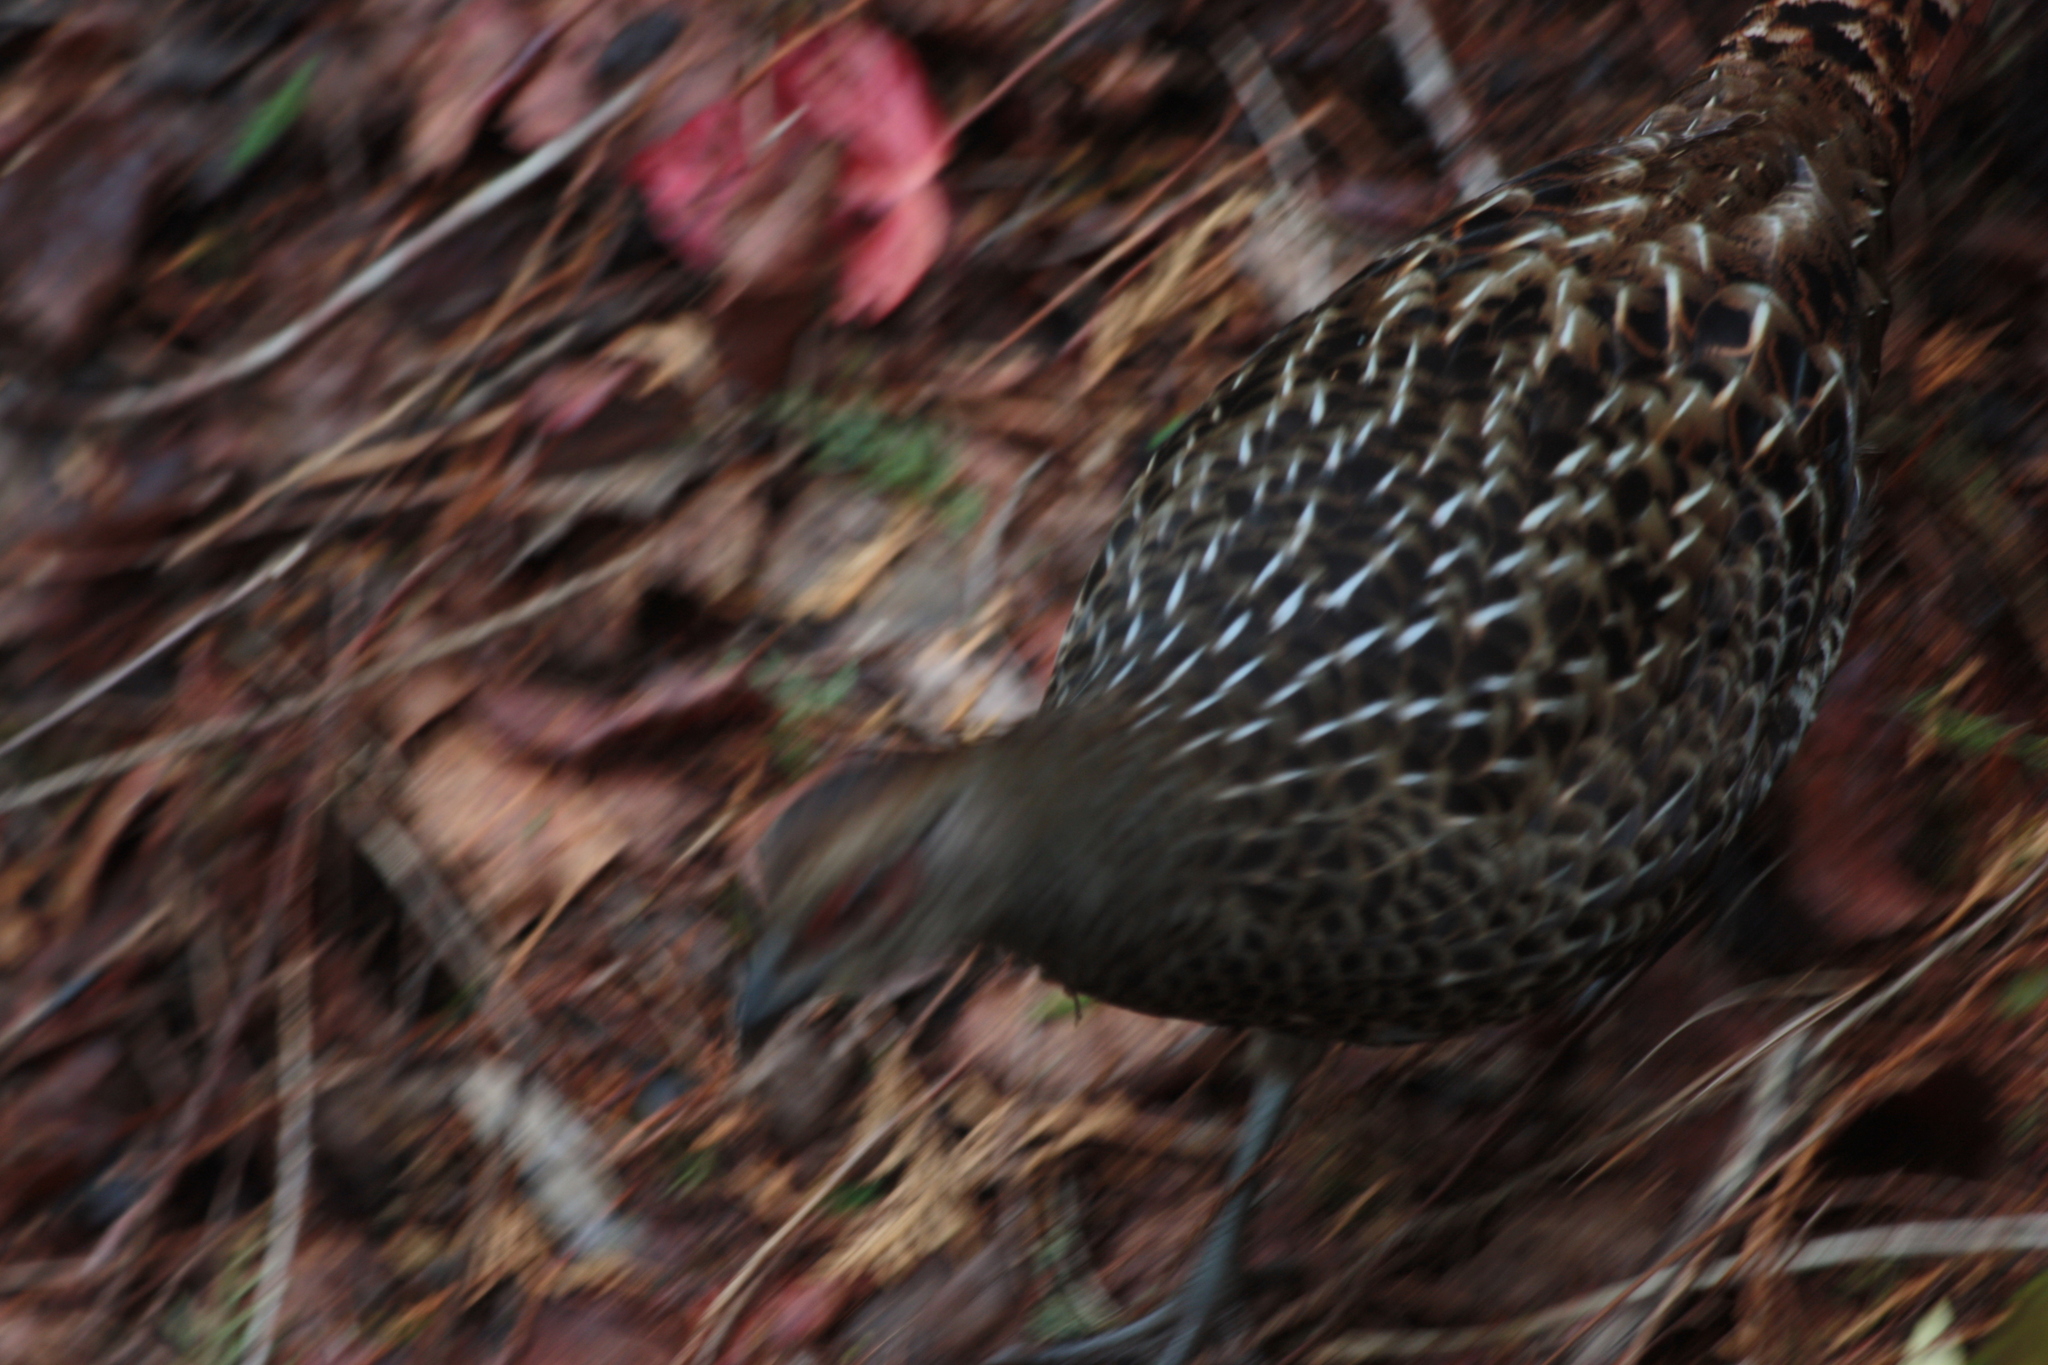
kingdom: Animalia
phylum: Chordata
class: Aves
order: Galliformes
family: Phasianidae
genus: Syrmaticus
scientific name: Syrmaticus mikado
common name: Mikado pheasant
